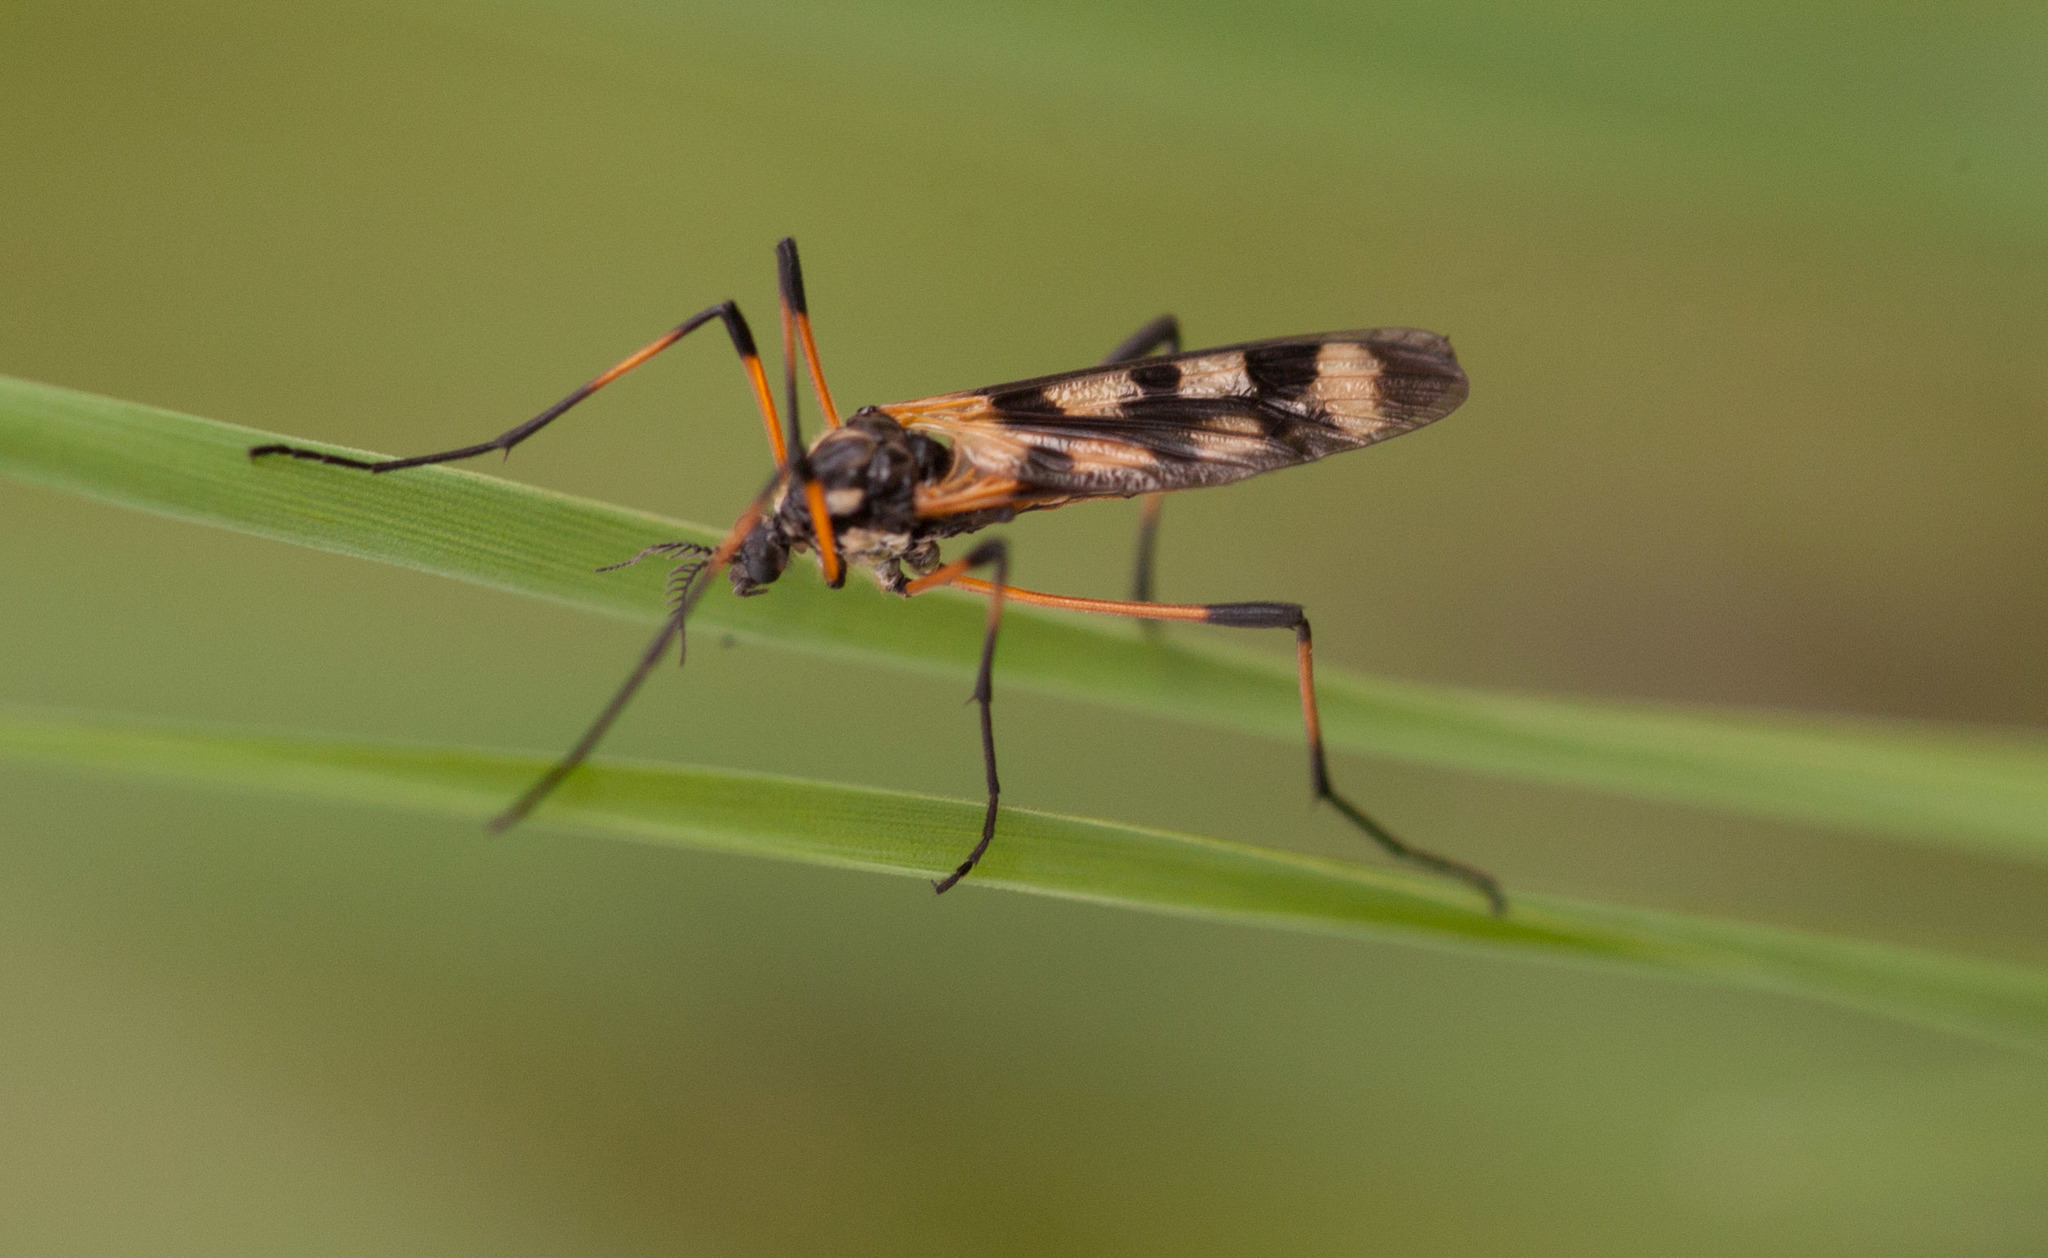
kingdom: Animalia
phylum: Arthropoda
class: Insecta
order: Diptera
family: Limoniidae
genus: Gynoplistia
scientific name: Gynoplistia
